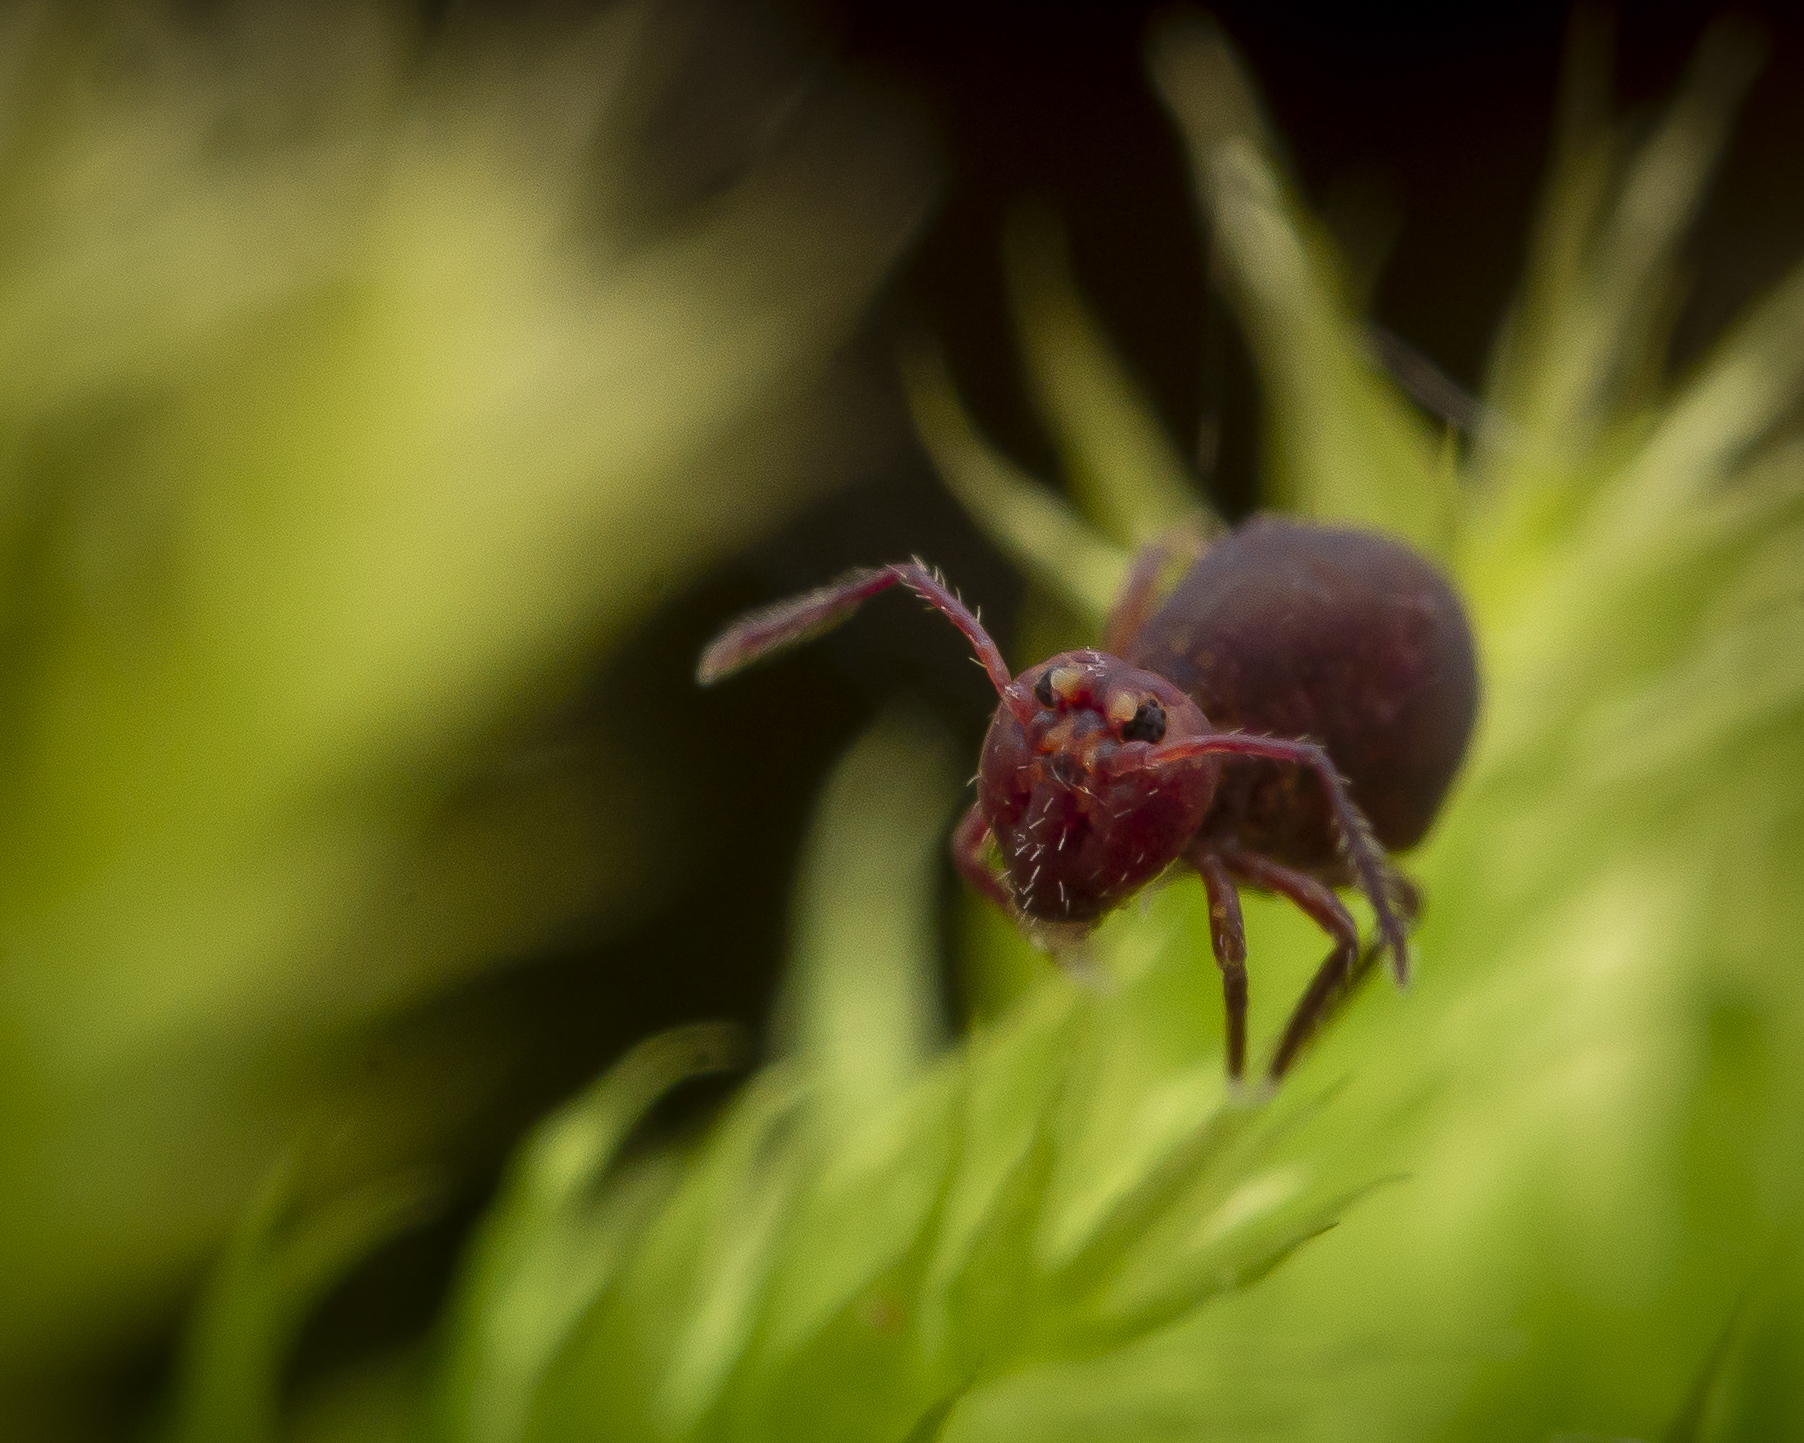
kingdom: Animalia
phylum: Arthropoda
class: Collembola
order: Symphypleona
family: Dicyrtomidae
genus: Dicyrtoma
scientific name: Dicyrtoma fusca
